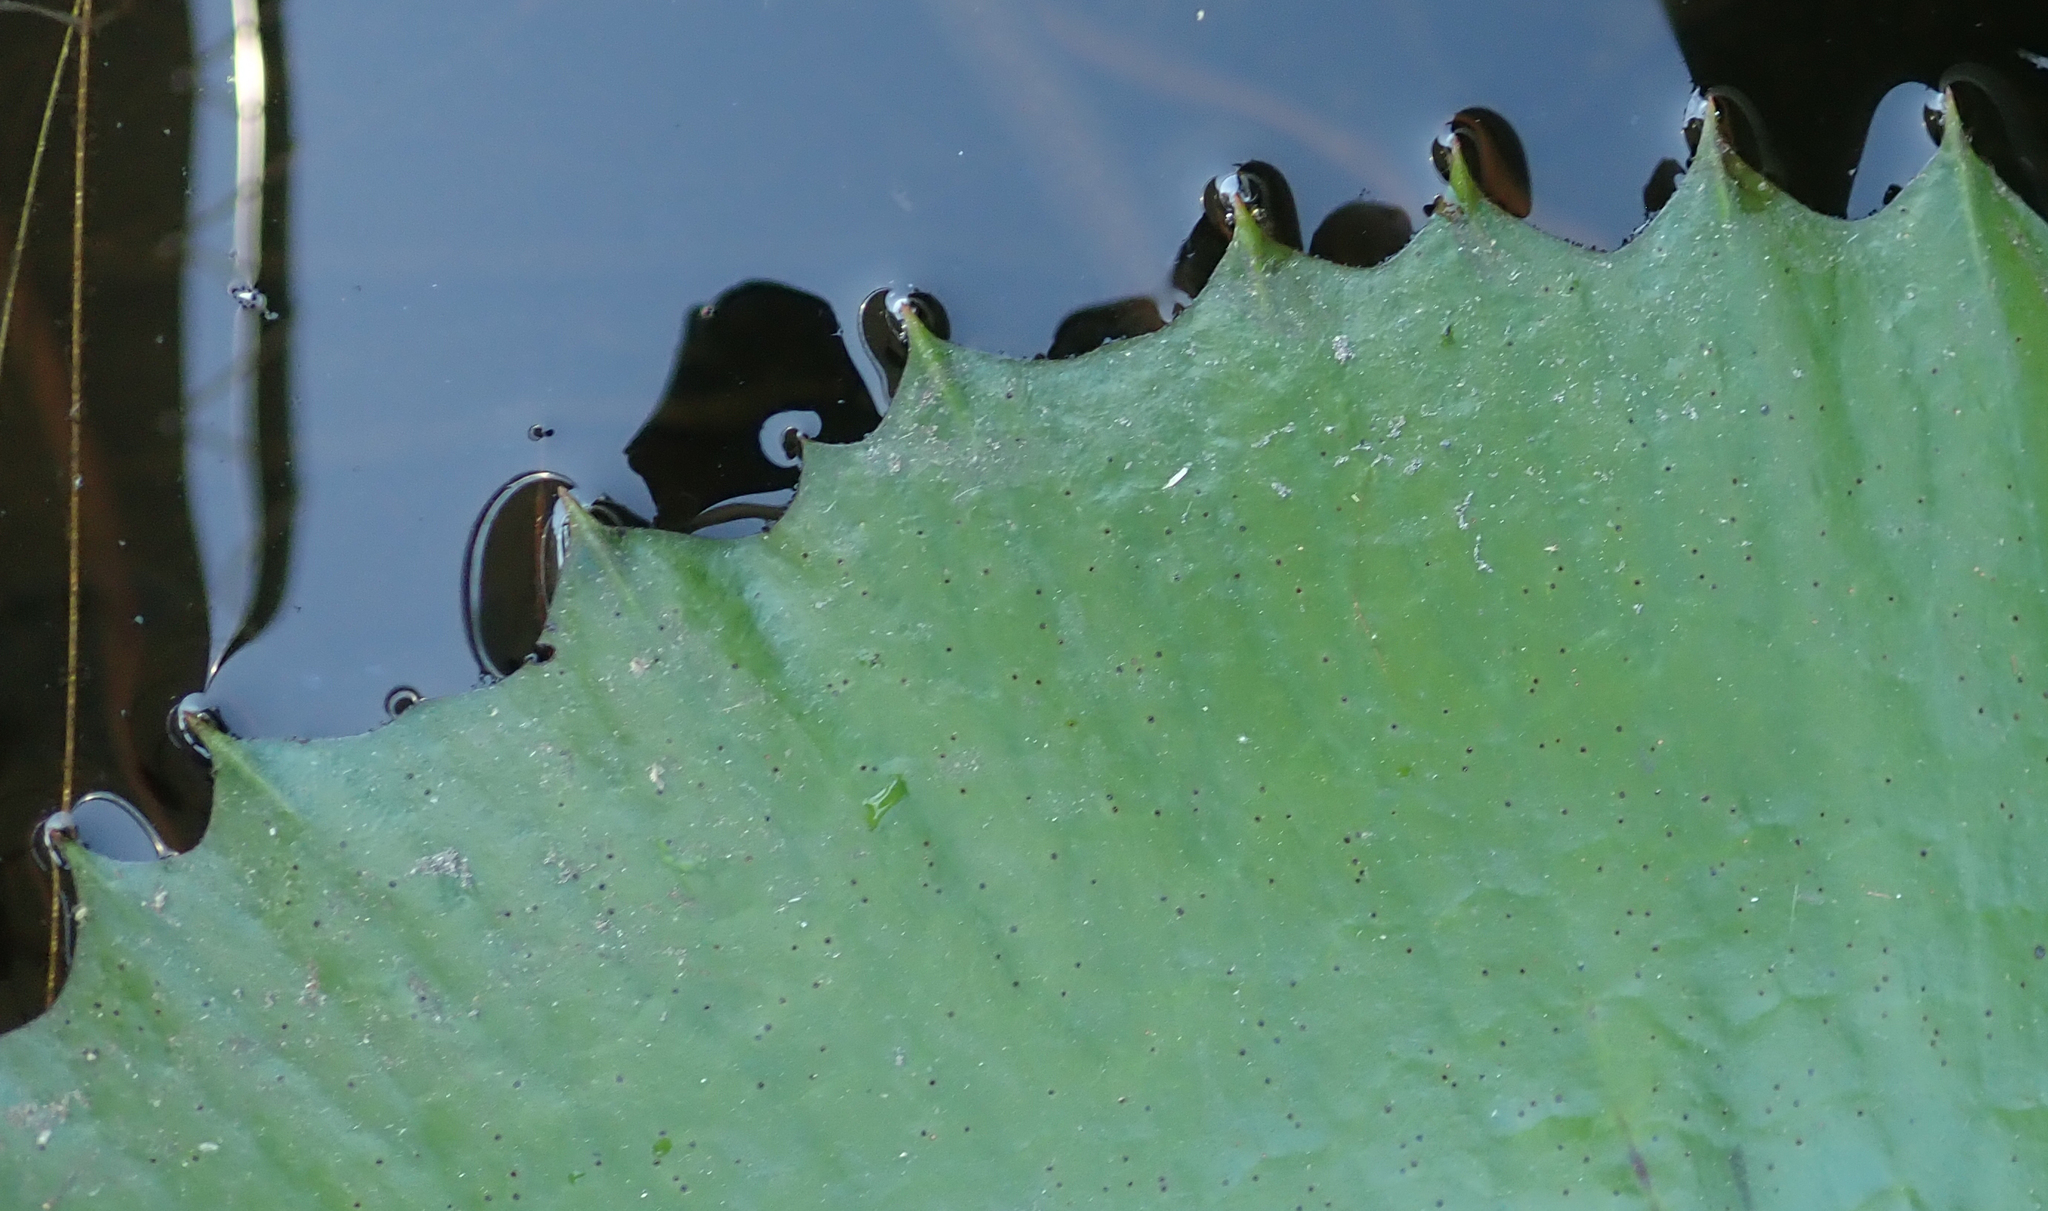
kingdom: Plantae
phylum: Tracheophyta
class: Magnoliopsida
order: Nymphaeales
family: Nymphaeaceae
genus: Nymphaea
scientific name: Nymphaea lotus
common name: White egyptian lotus
